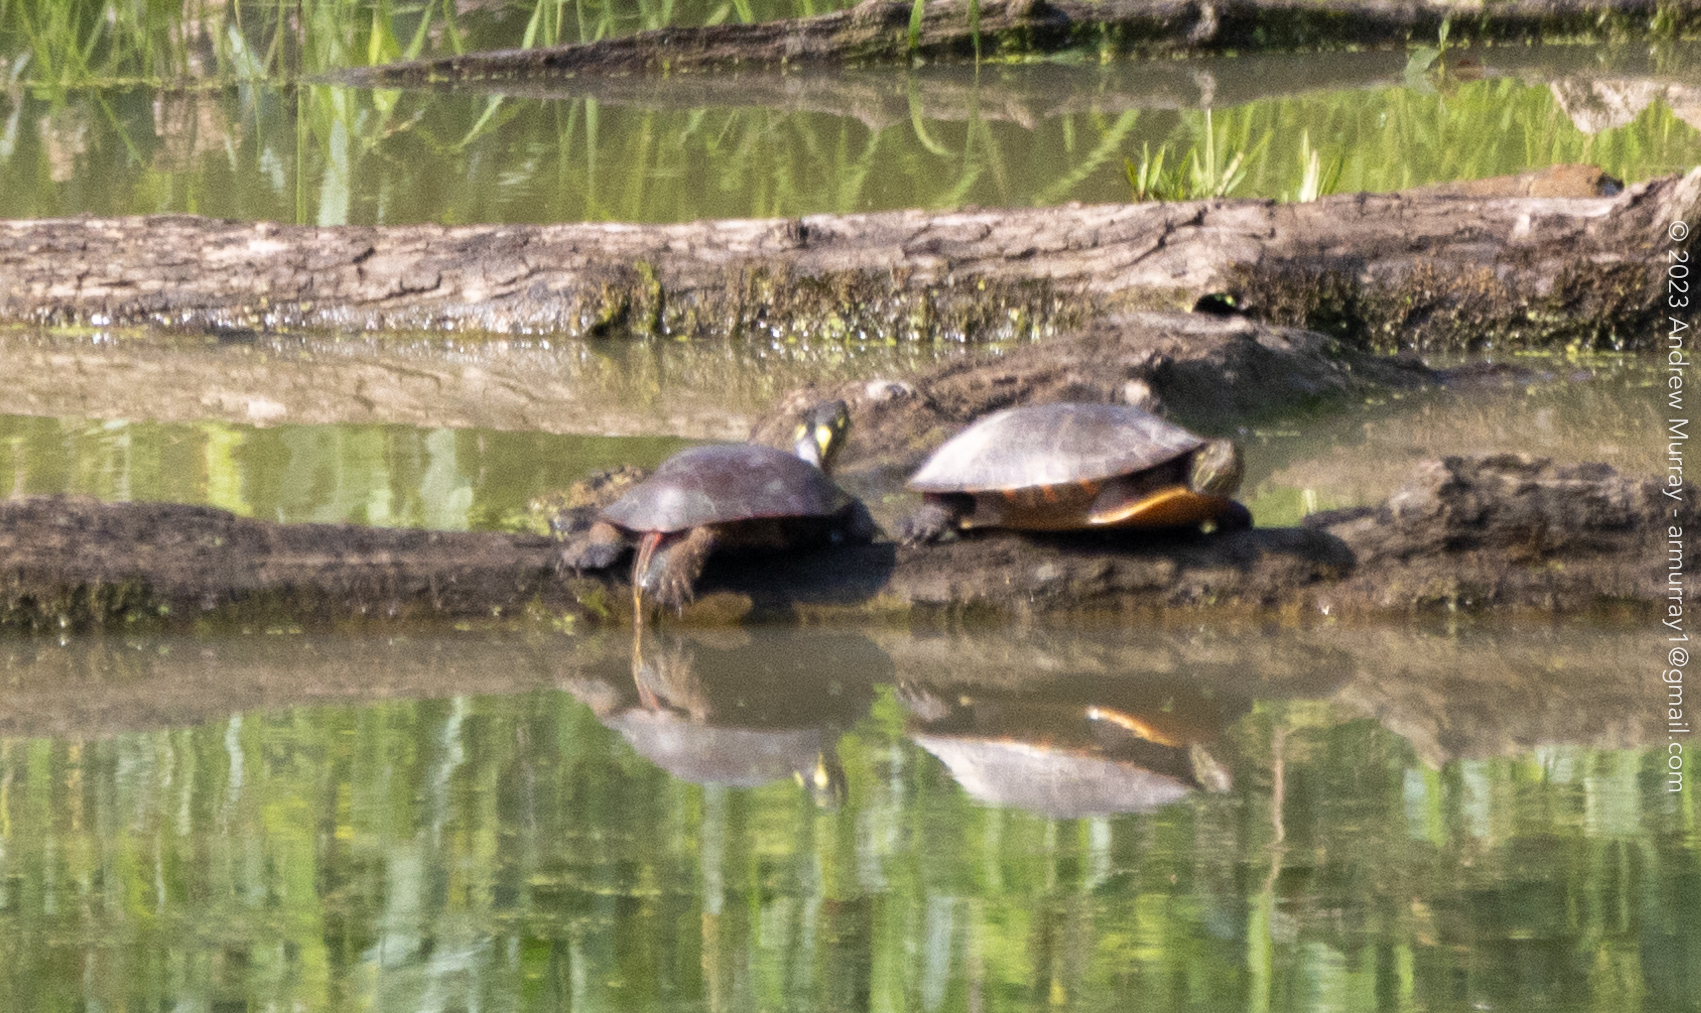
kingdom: Animalia
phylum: Chordata
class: Testudines
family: Emydidae
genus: Chrysemys
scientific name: Chrysemys picta
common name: Painted turtle
